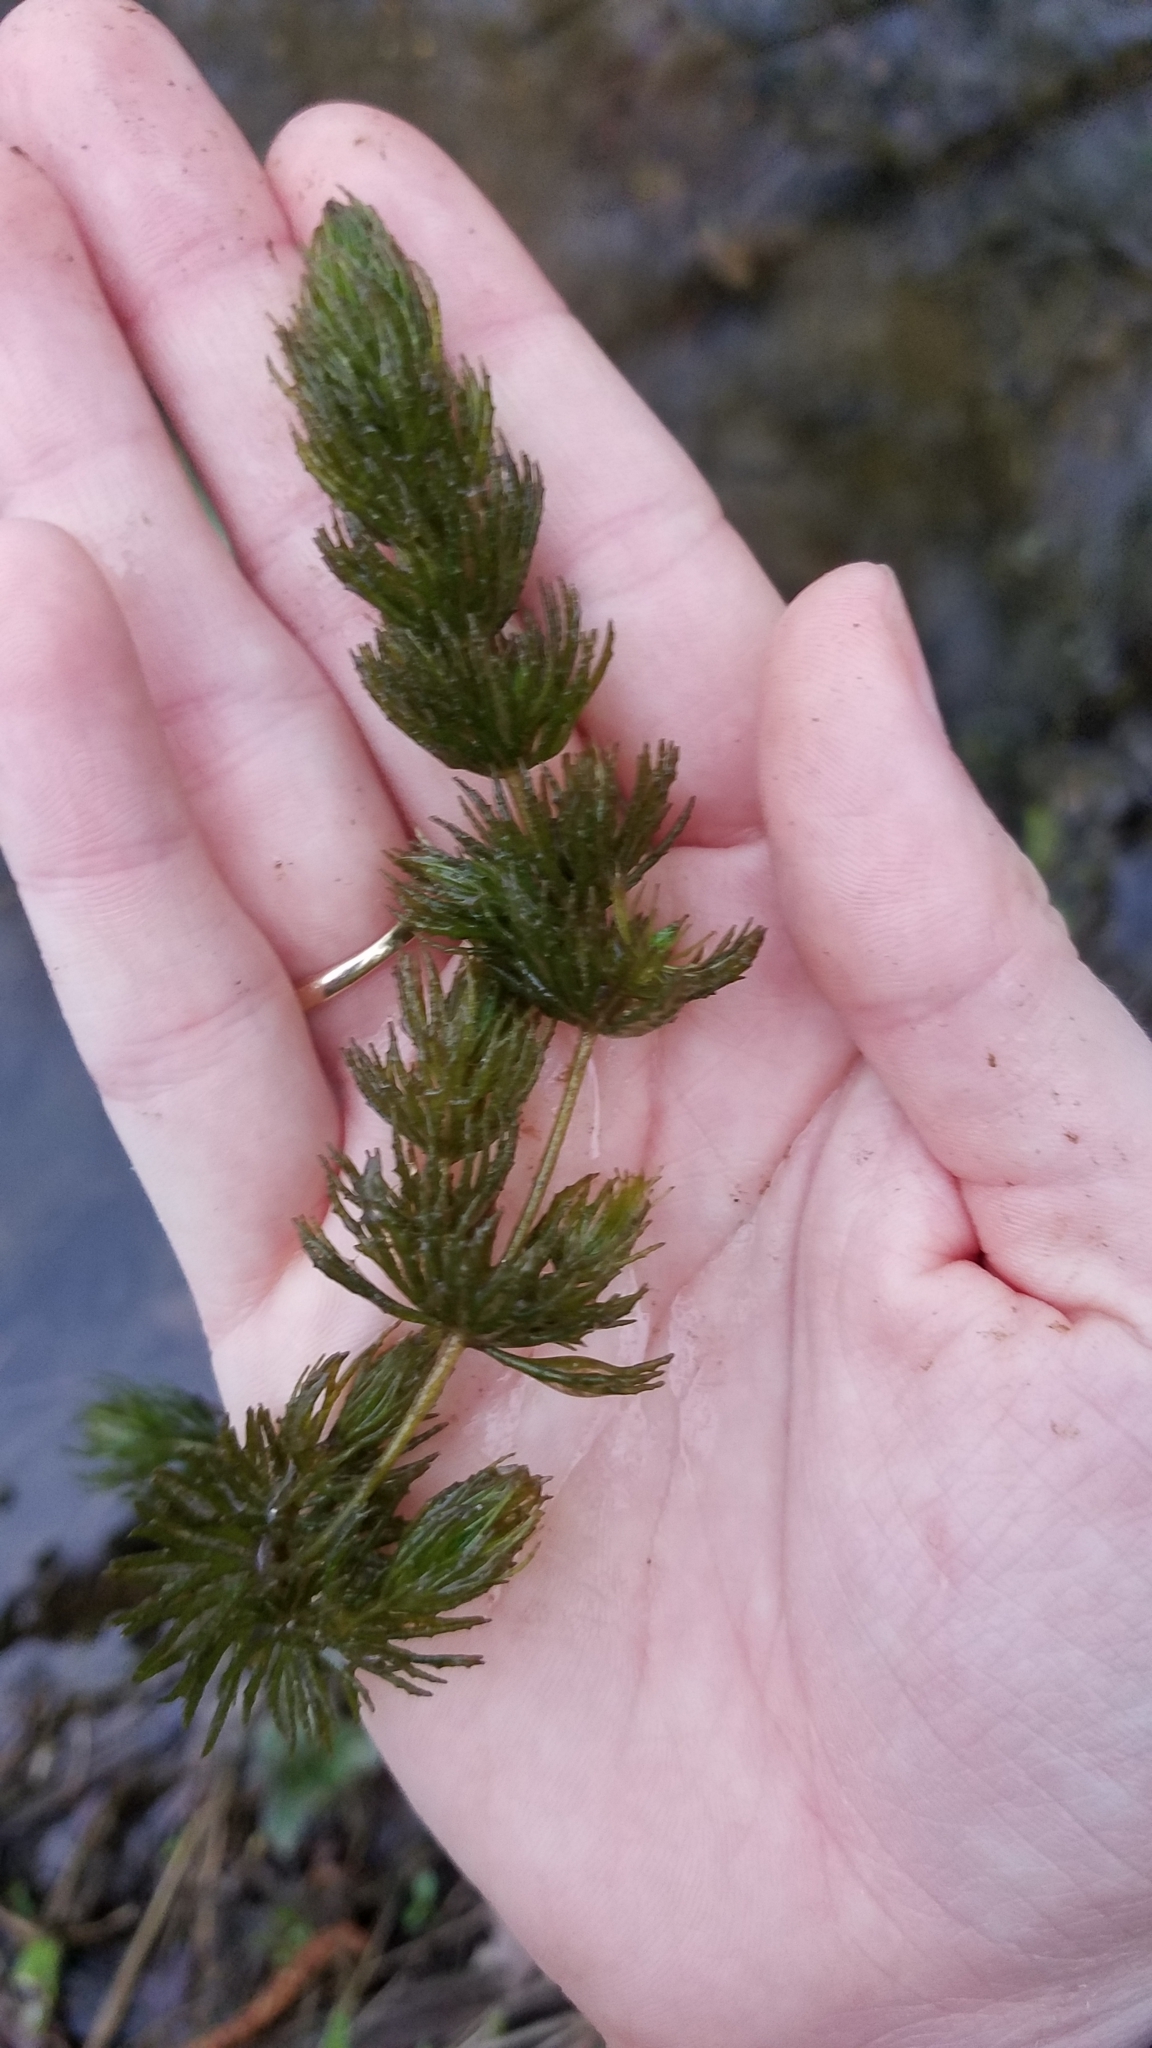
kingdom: Plantae
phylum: Tracheophyta
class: Magnoliopsida
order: Ceratophyllales
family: Ceratophyllaceae
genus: Ceratophyllum
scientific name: Ceratophyllum demersum
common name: Rigid hornwort
